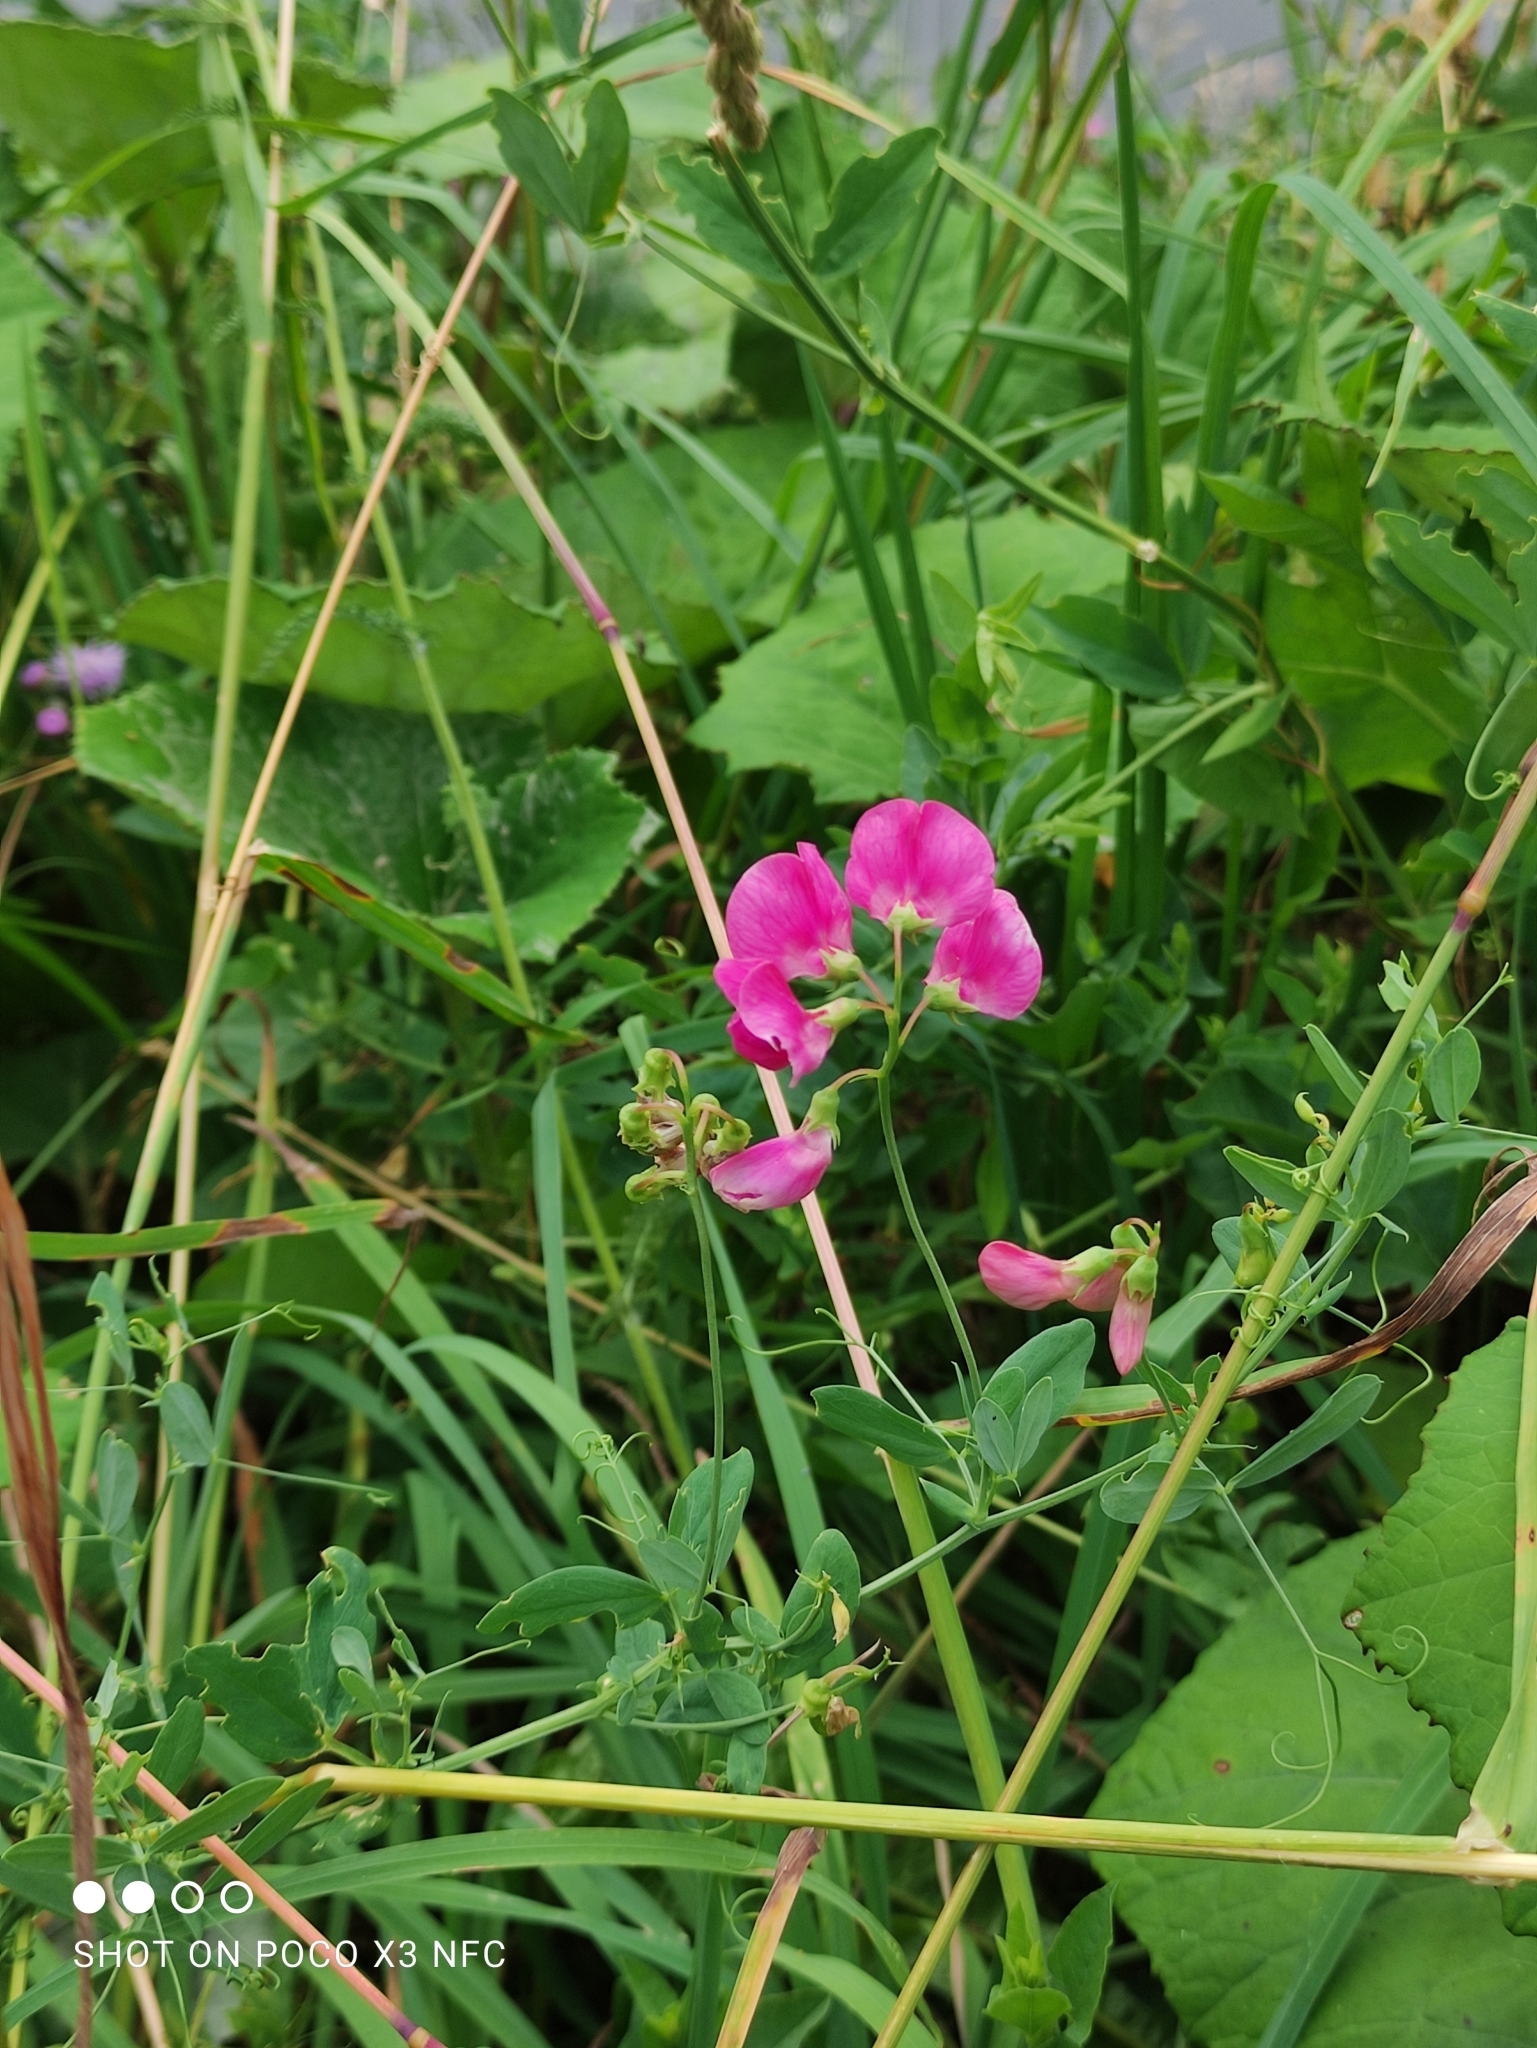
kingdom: Plantae
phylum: Tracheophyta
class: Magnoliopsida
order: Fabales
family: Fabaceae
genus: Lathyrus
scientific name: Lathyrus tuberosus
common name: Tuberous pea
